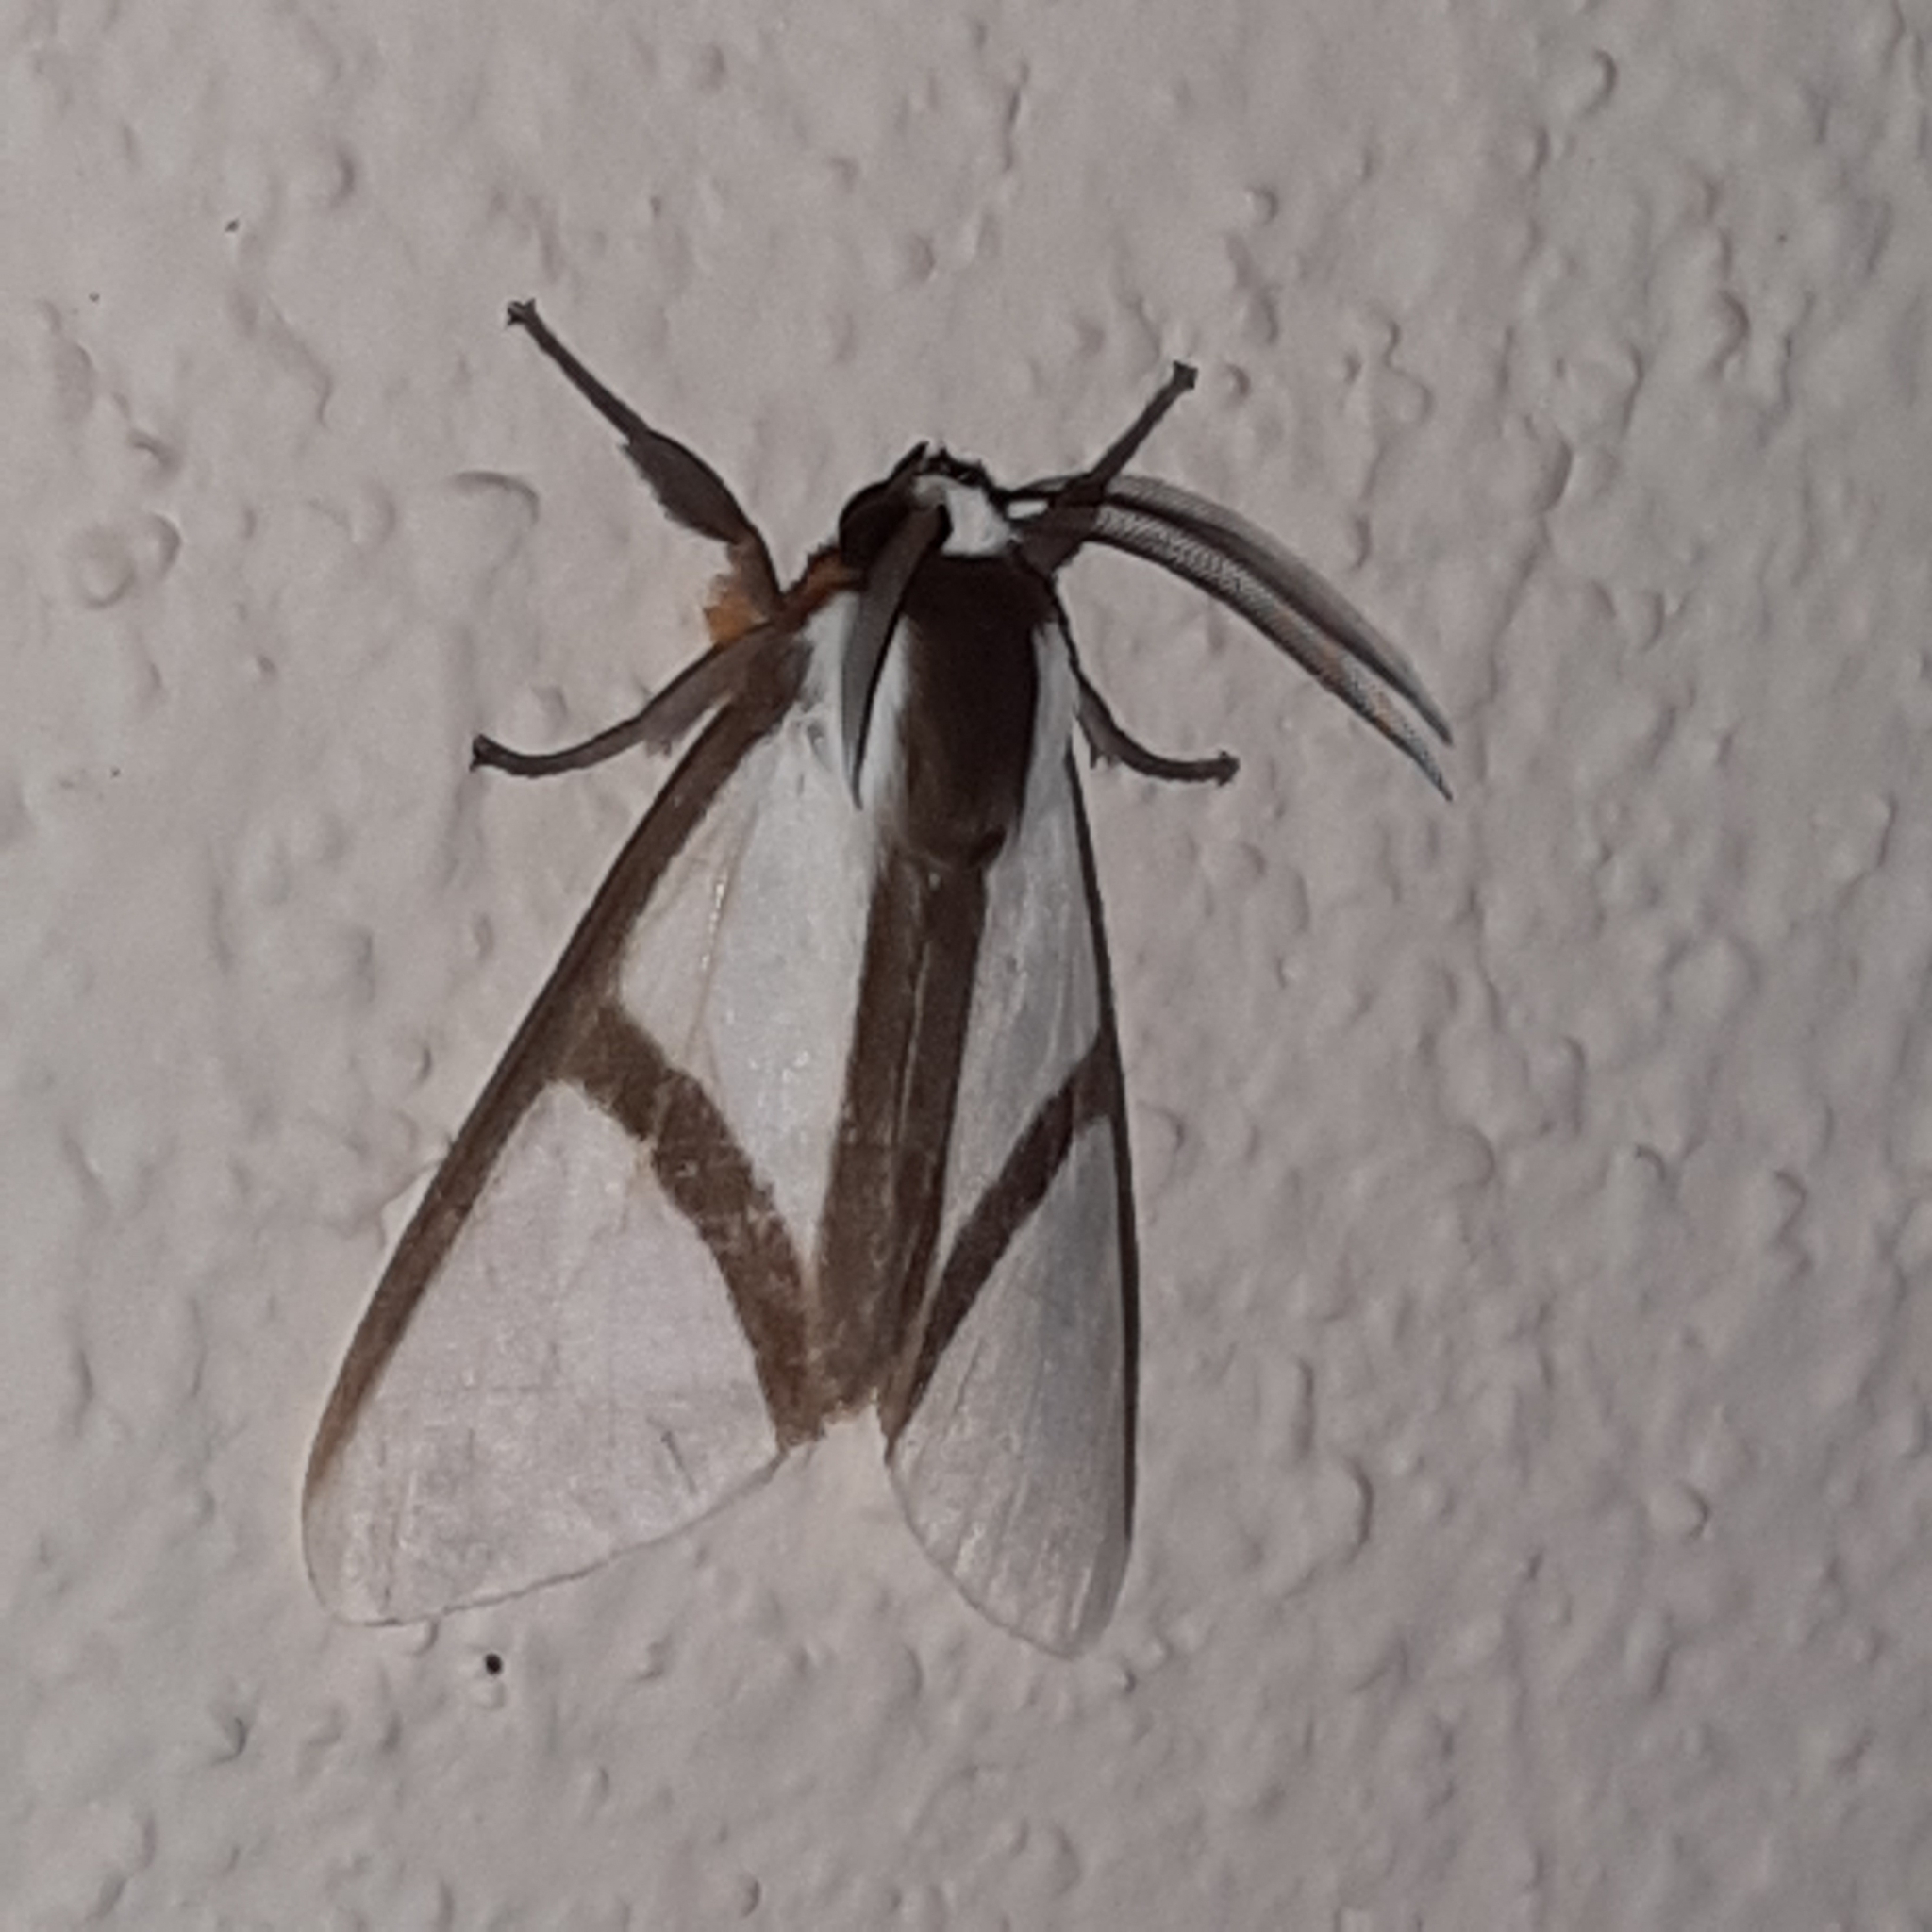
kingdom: Animalia
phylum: Arthropoda
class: Insecta
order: Lepidoptera
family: Erebidae
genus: Turuptiana
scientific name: Turuptiana obliqua
